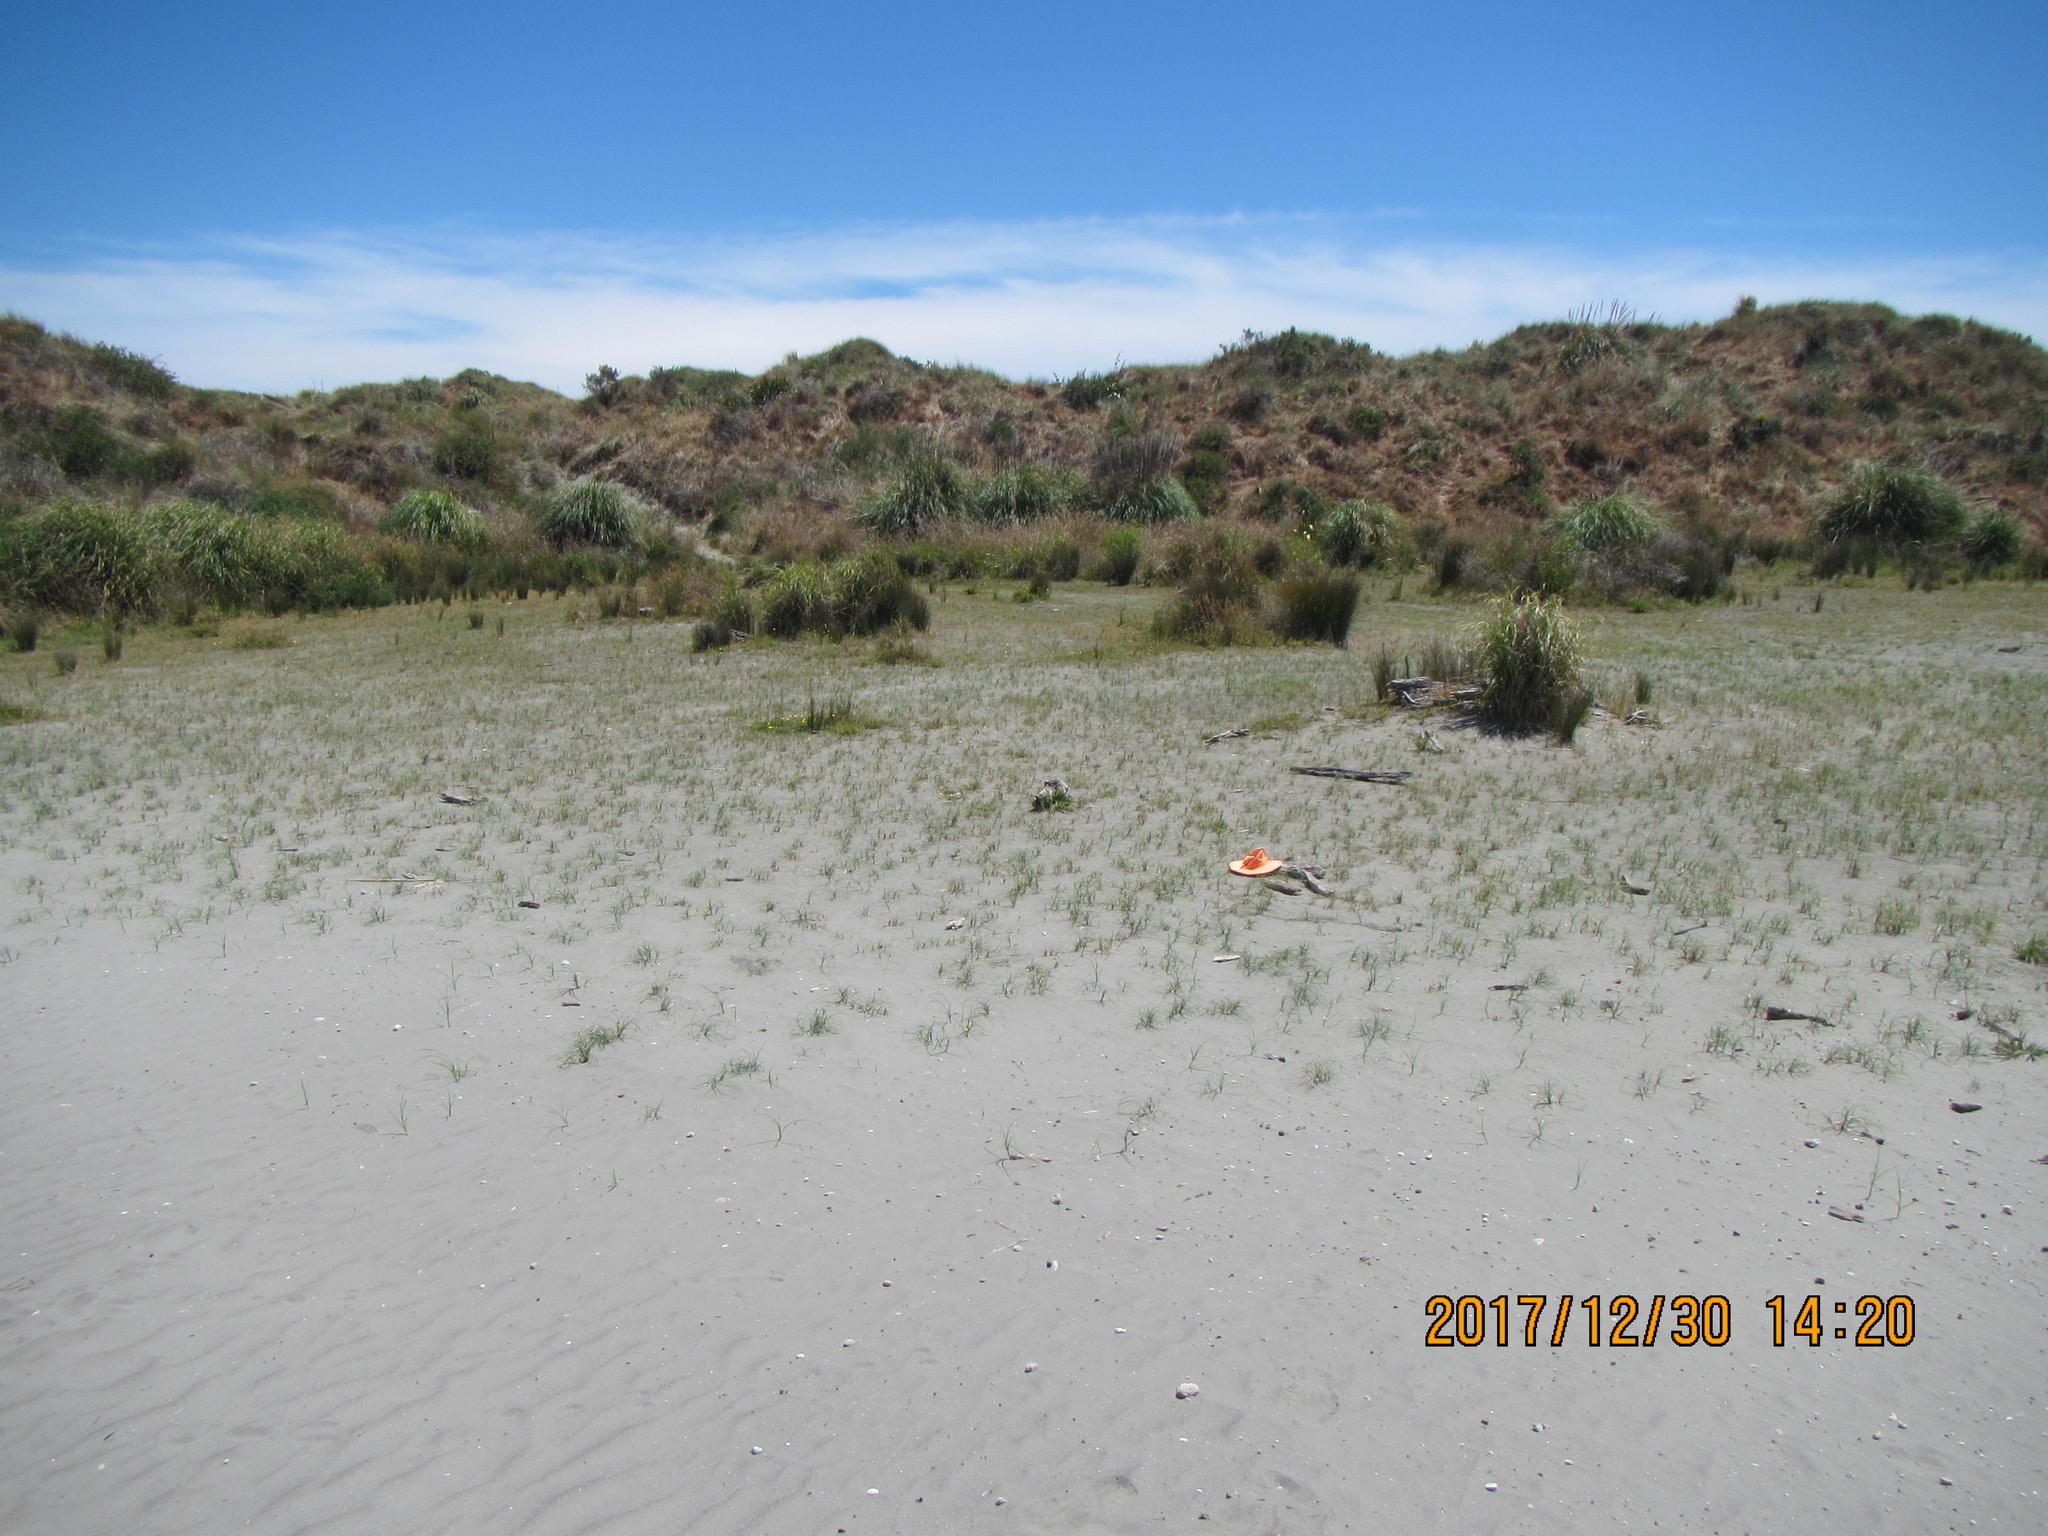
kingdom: Animalia
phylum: Arthropoda
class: Arachnida
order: Opiliones
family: Phalangiidae
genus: Phalangium
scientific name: Phalangium opilio
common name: Daddy longleg
